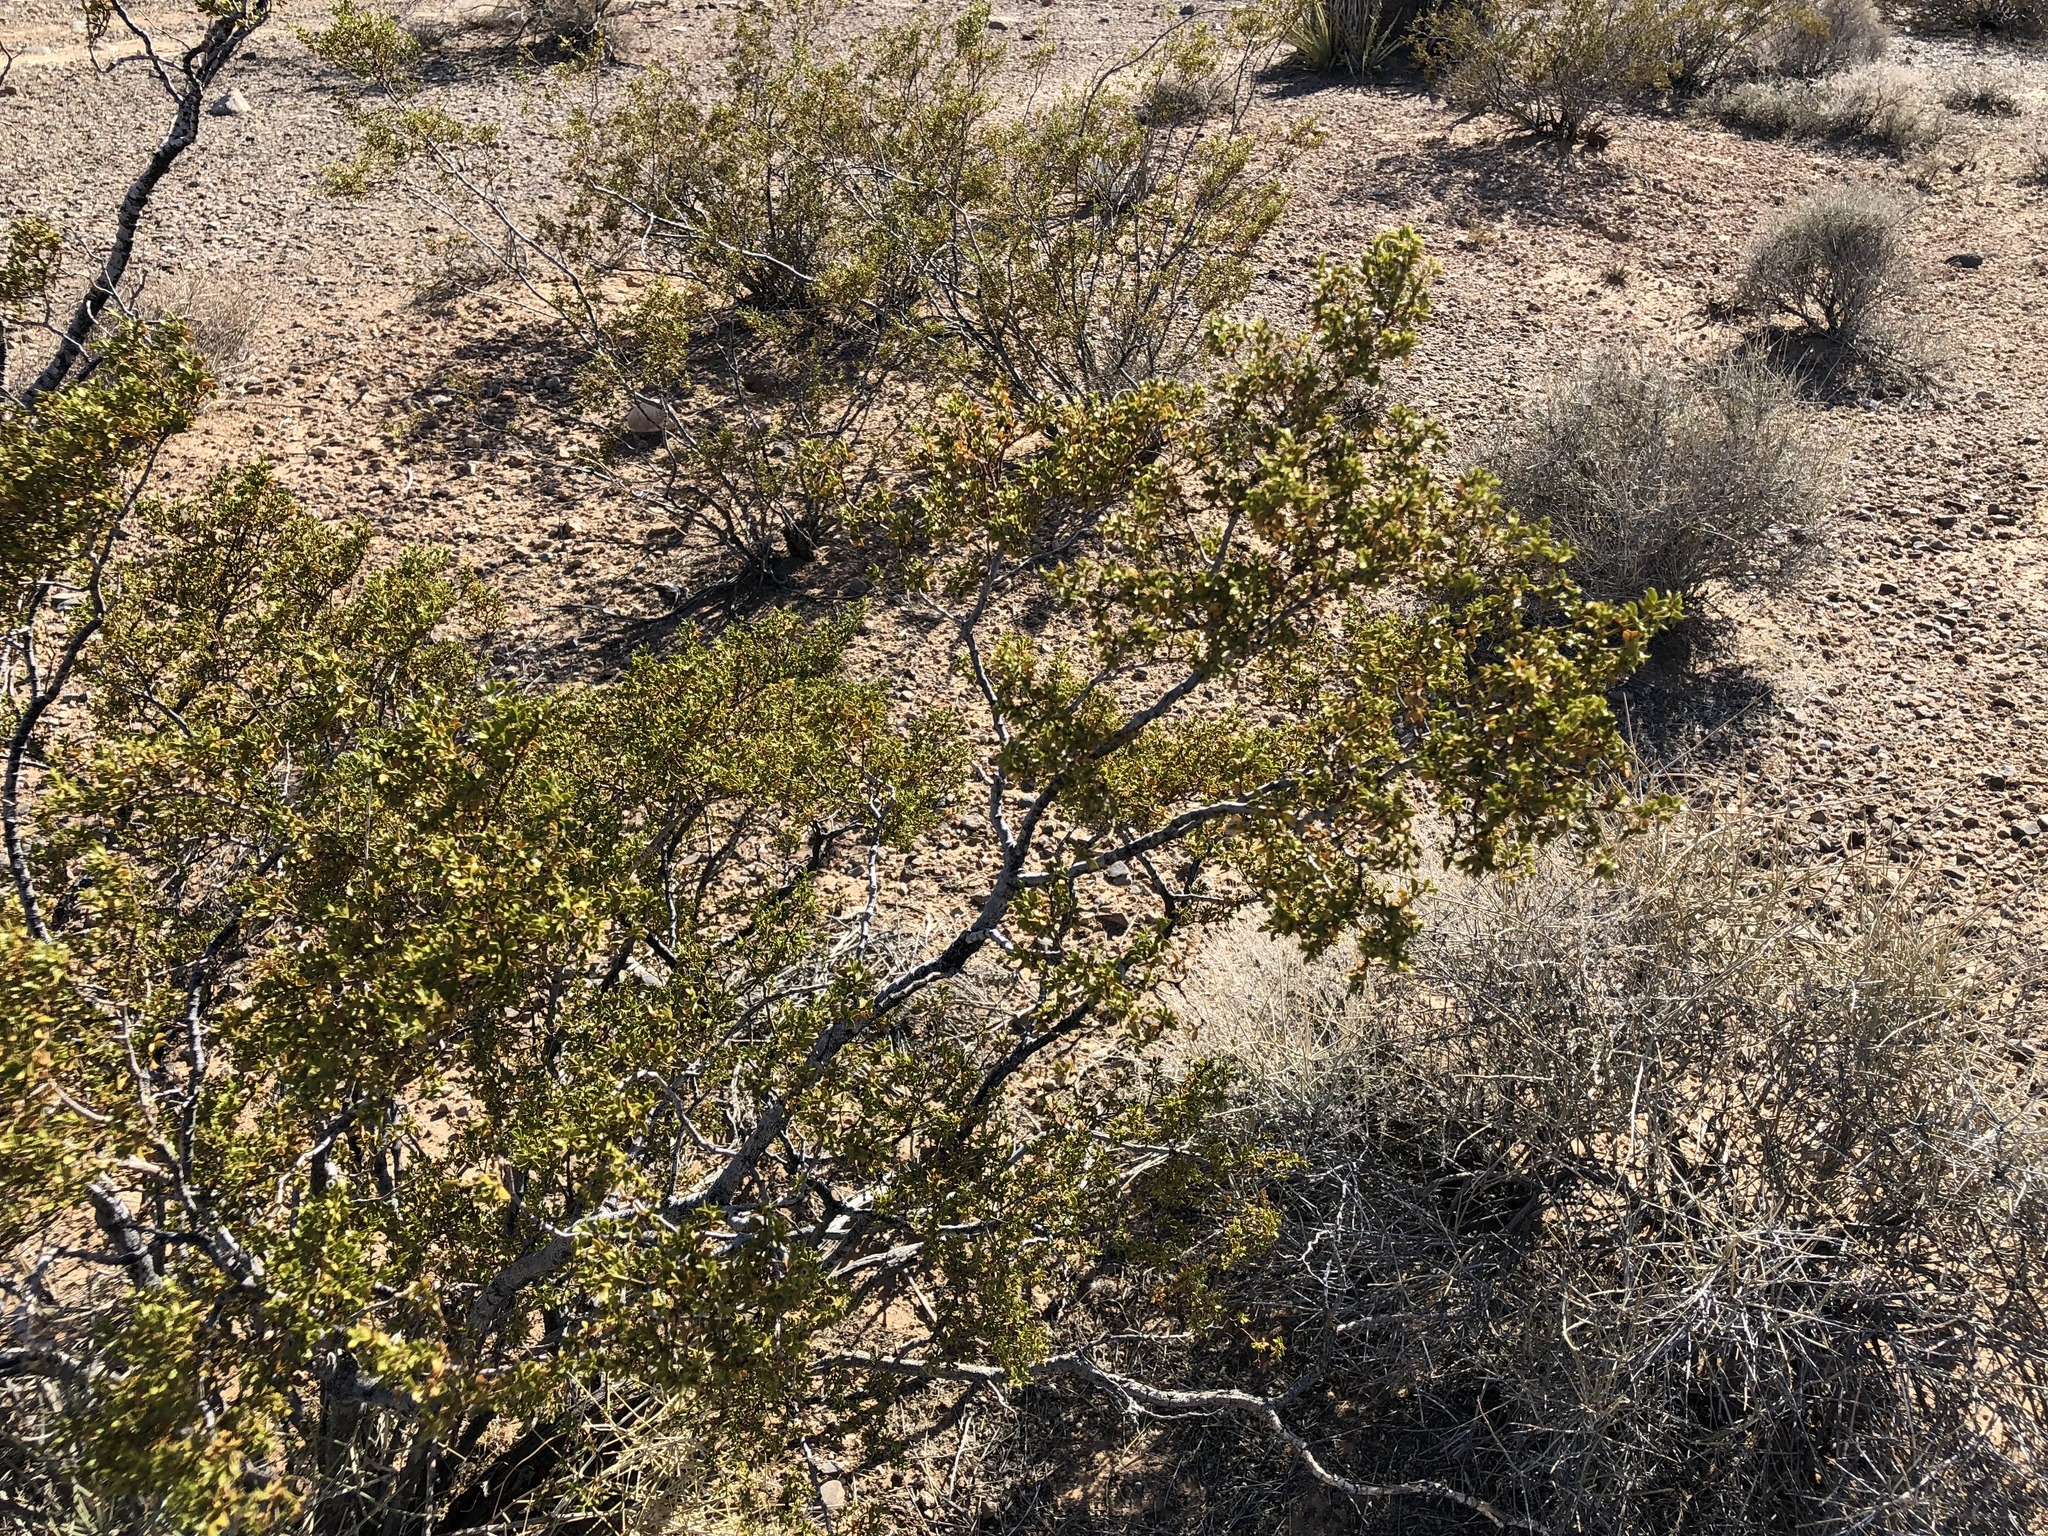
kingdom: Plantae
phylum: Tracheophyta
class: Magnoliopsida
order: Zygophyllales
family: Zygophyllaceae
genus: Larrea
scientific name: Larrea tridentata
